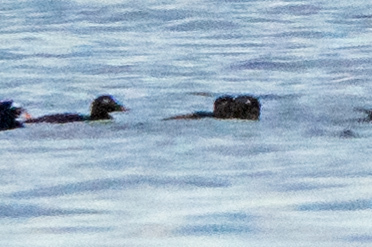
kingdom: Animalia
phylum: Chordata
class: Aves
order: Anseriformes
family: Anatidae
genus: Melanitta
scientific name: Melanitta deglandi
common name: White-winged scoter
